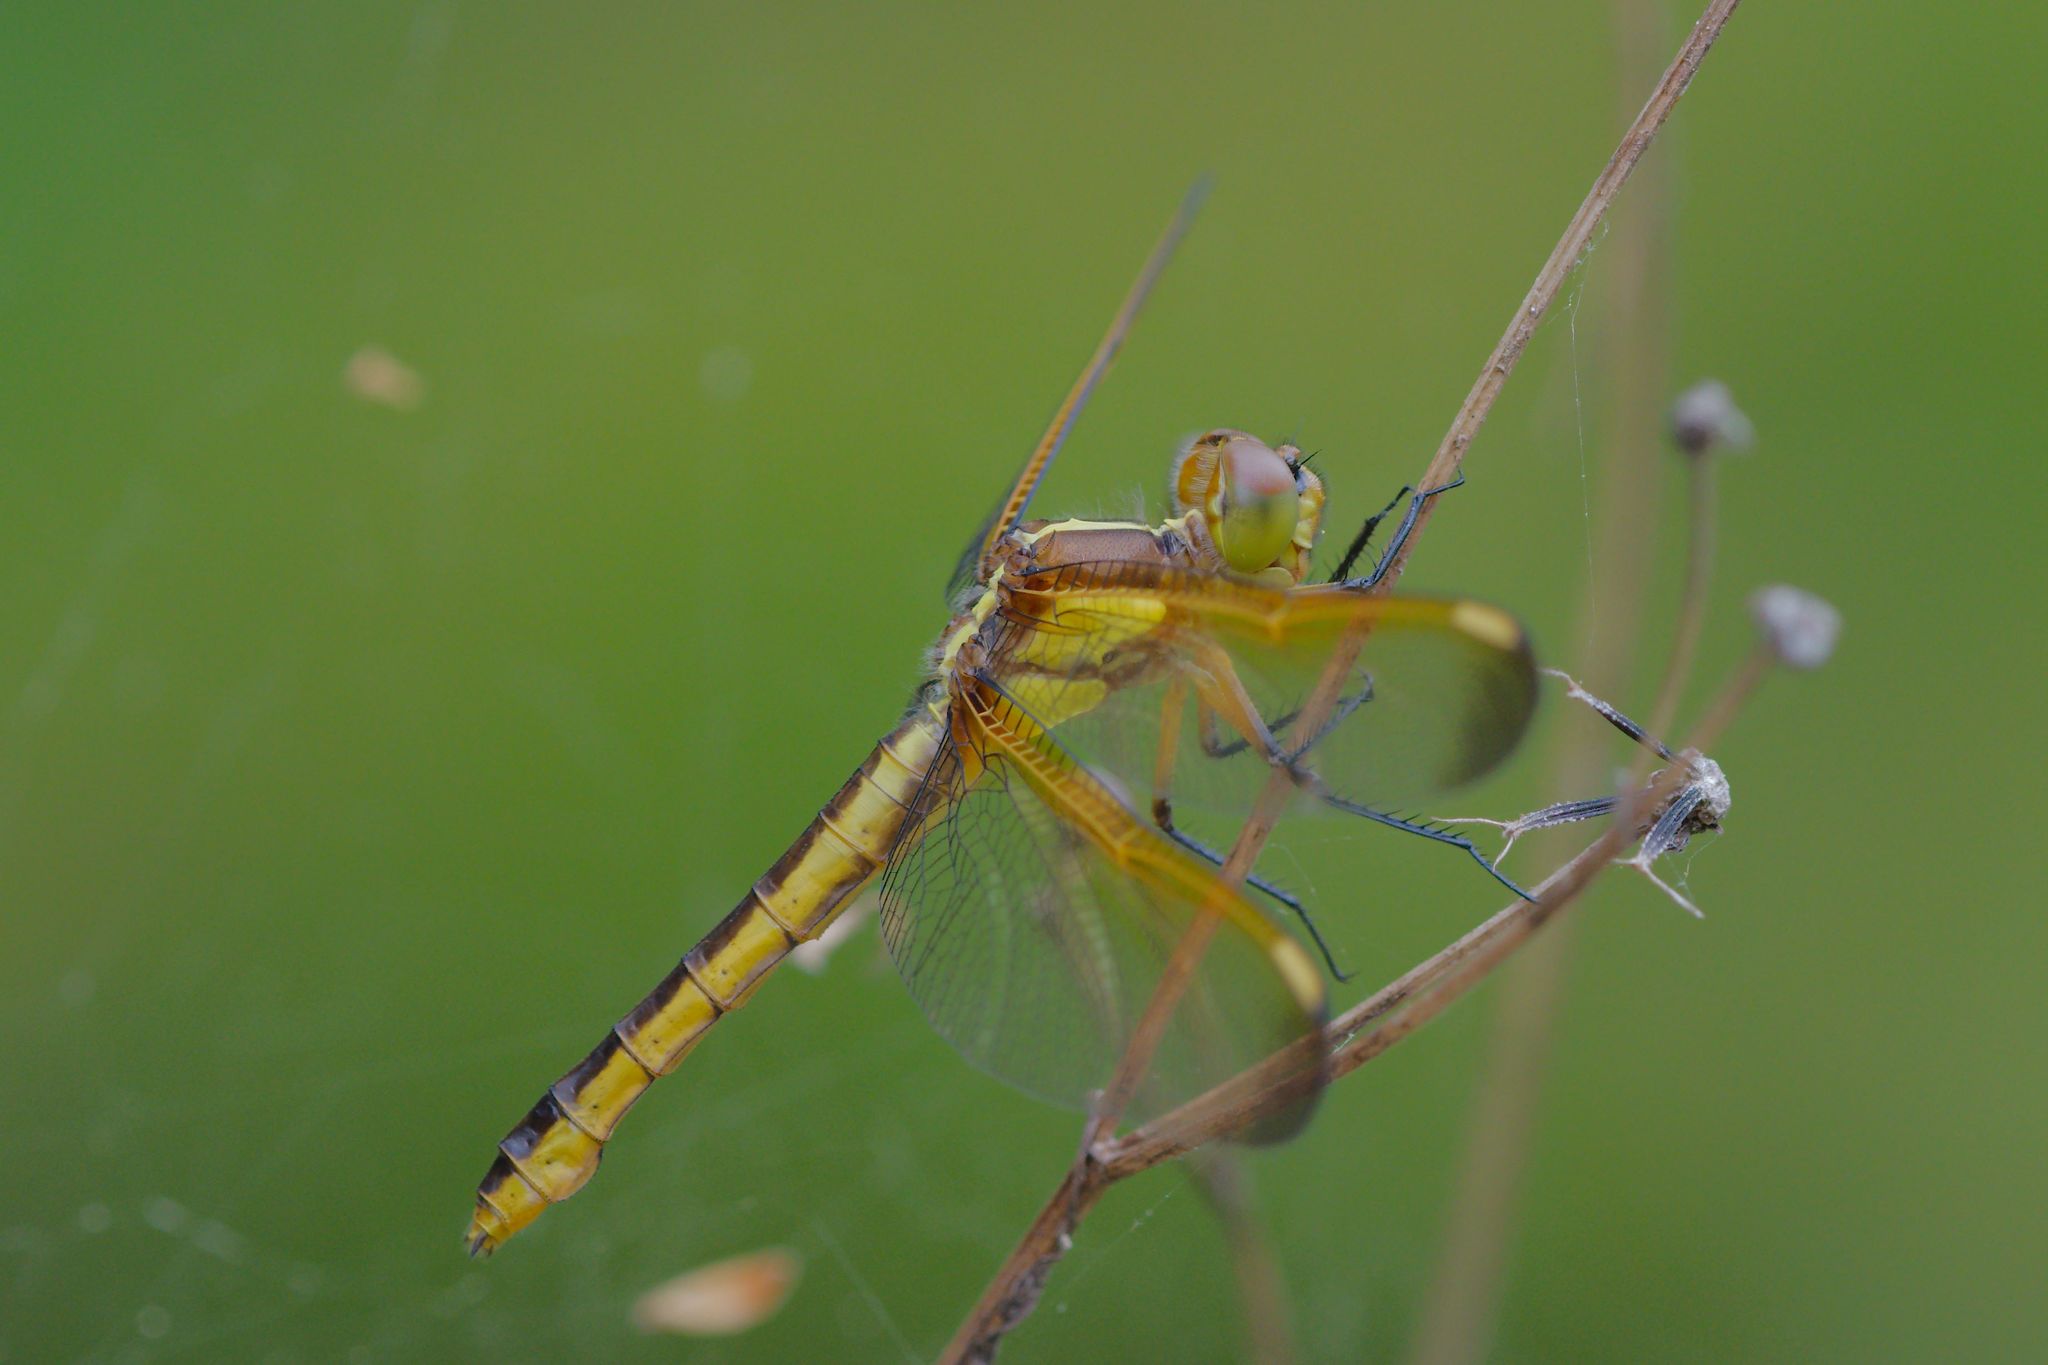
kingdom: Animalia
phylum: Arthropoda
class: Insecta
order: Odonata
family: Libellulidae
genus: Libellula
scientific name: Libellula flavida
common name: Yellow-sided skimmer
